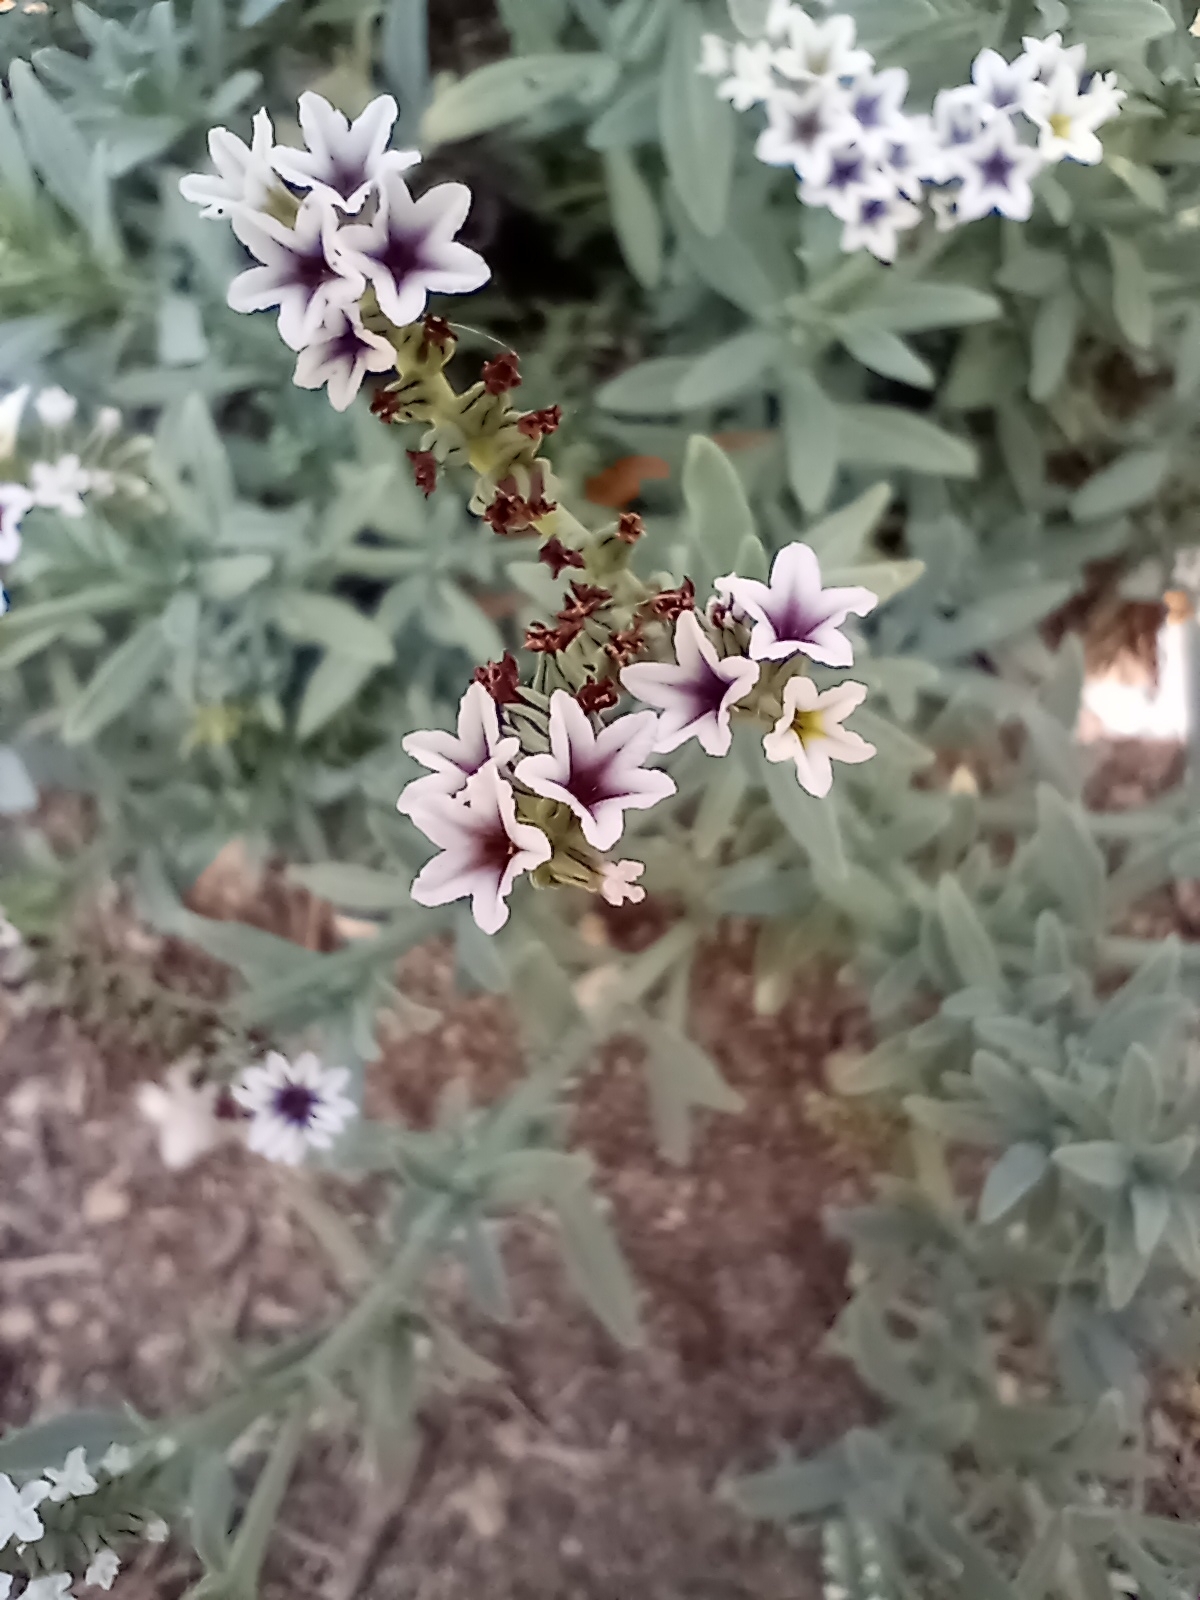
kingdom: Plantae
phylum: Tracheophyta
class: Magnoliopsida
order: Boraginales
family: Heliotropiaceae
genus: Heliotropium
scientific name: Heliotropium curassavicum
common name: Seaside heliotrope
